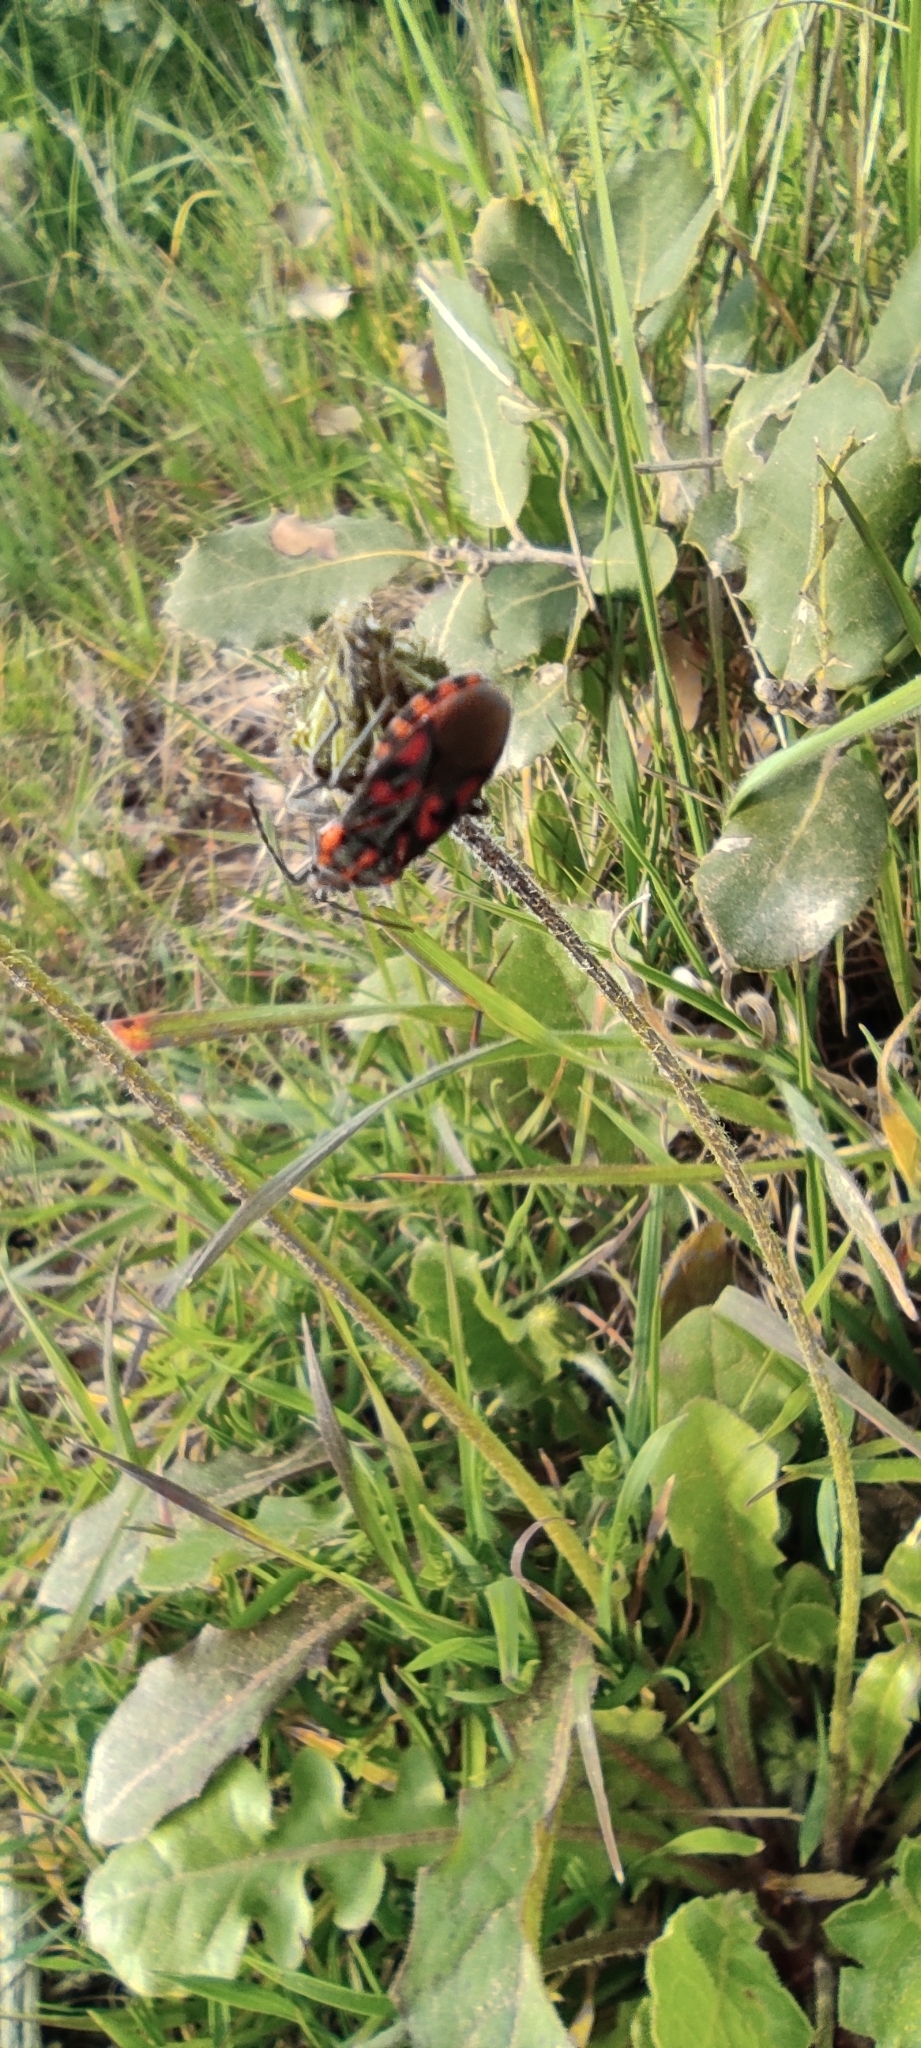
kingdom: Animalia
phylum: Arthropoda
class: Insecta
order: Hemiptera
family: Lygaeidae
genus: Spilostethus
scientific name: Spilostethus saxatilis
